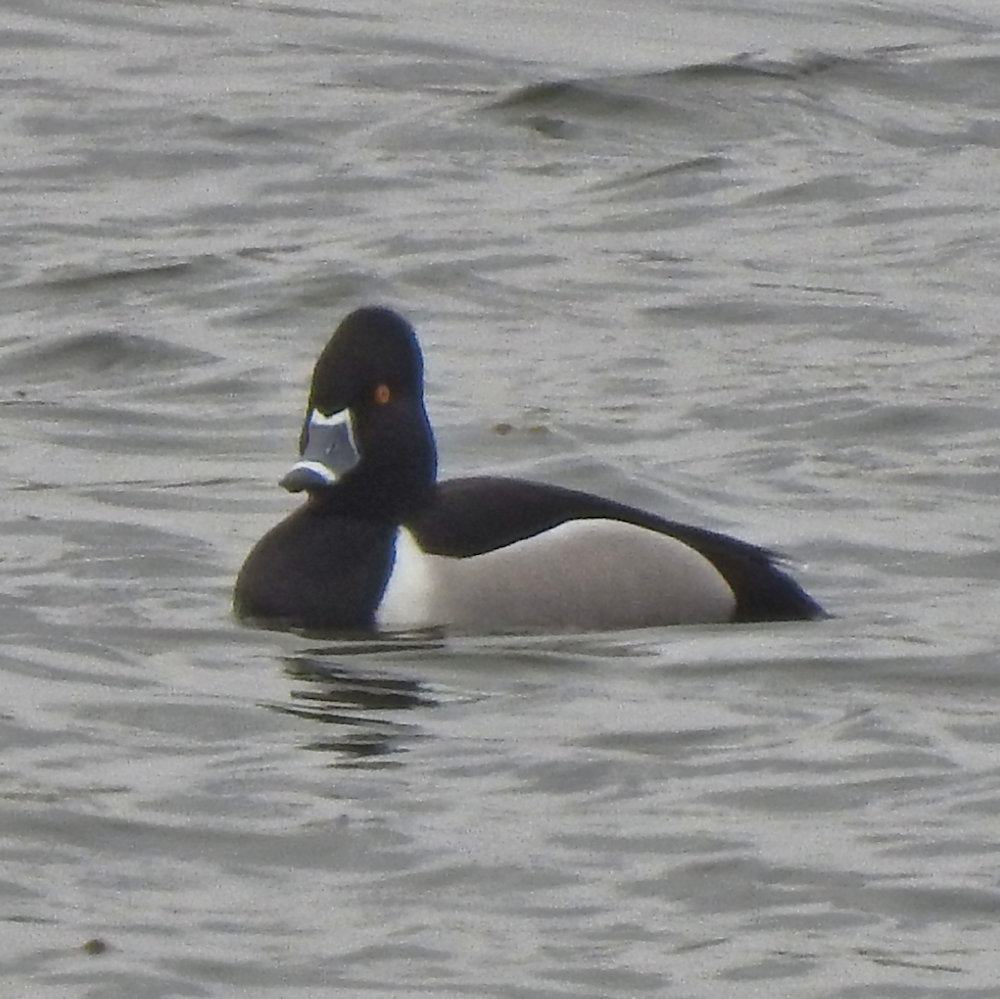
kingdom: Animalia
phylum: Chordata
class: Aves
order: Anseriformes
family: Anatidae
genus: Aythya
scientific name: Aythya collaris
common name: Ring-necked duck
